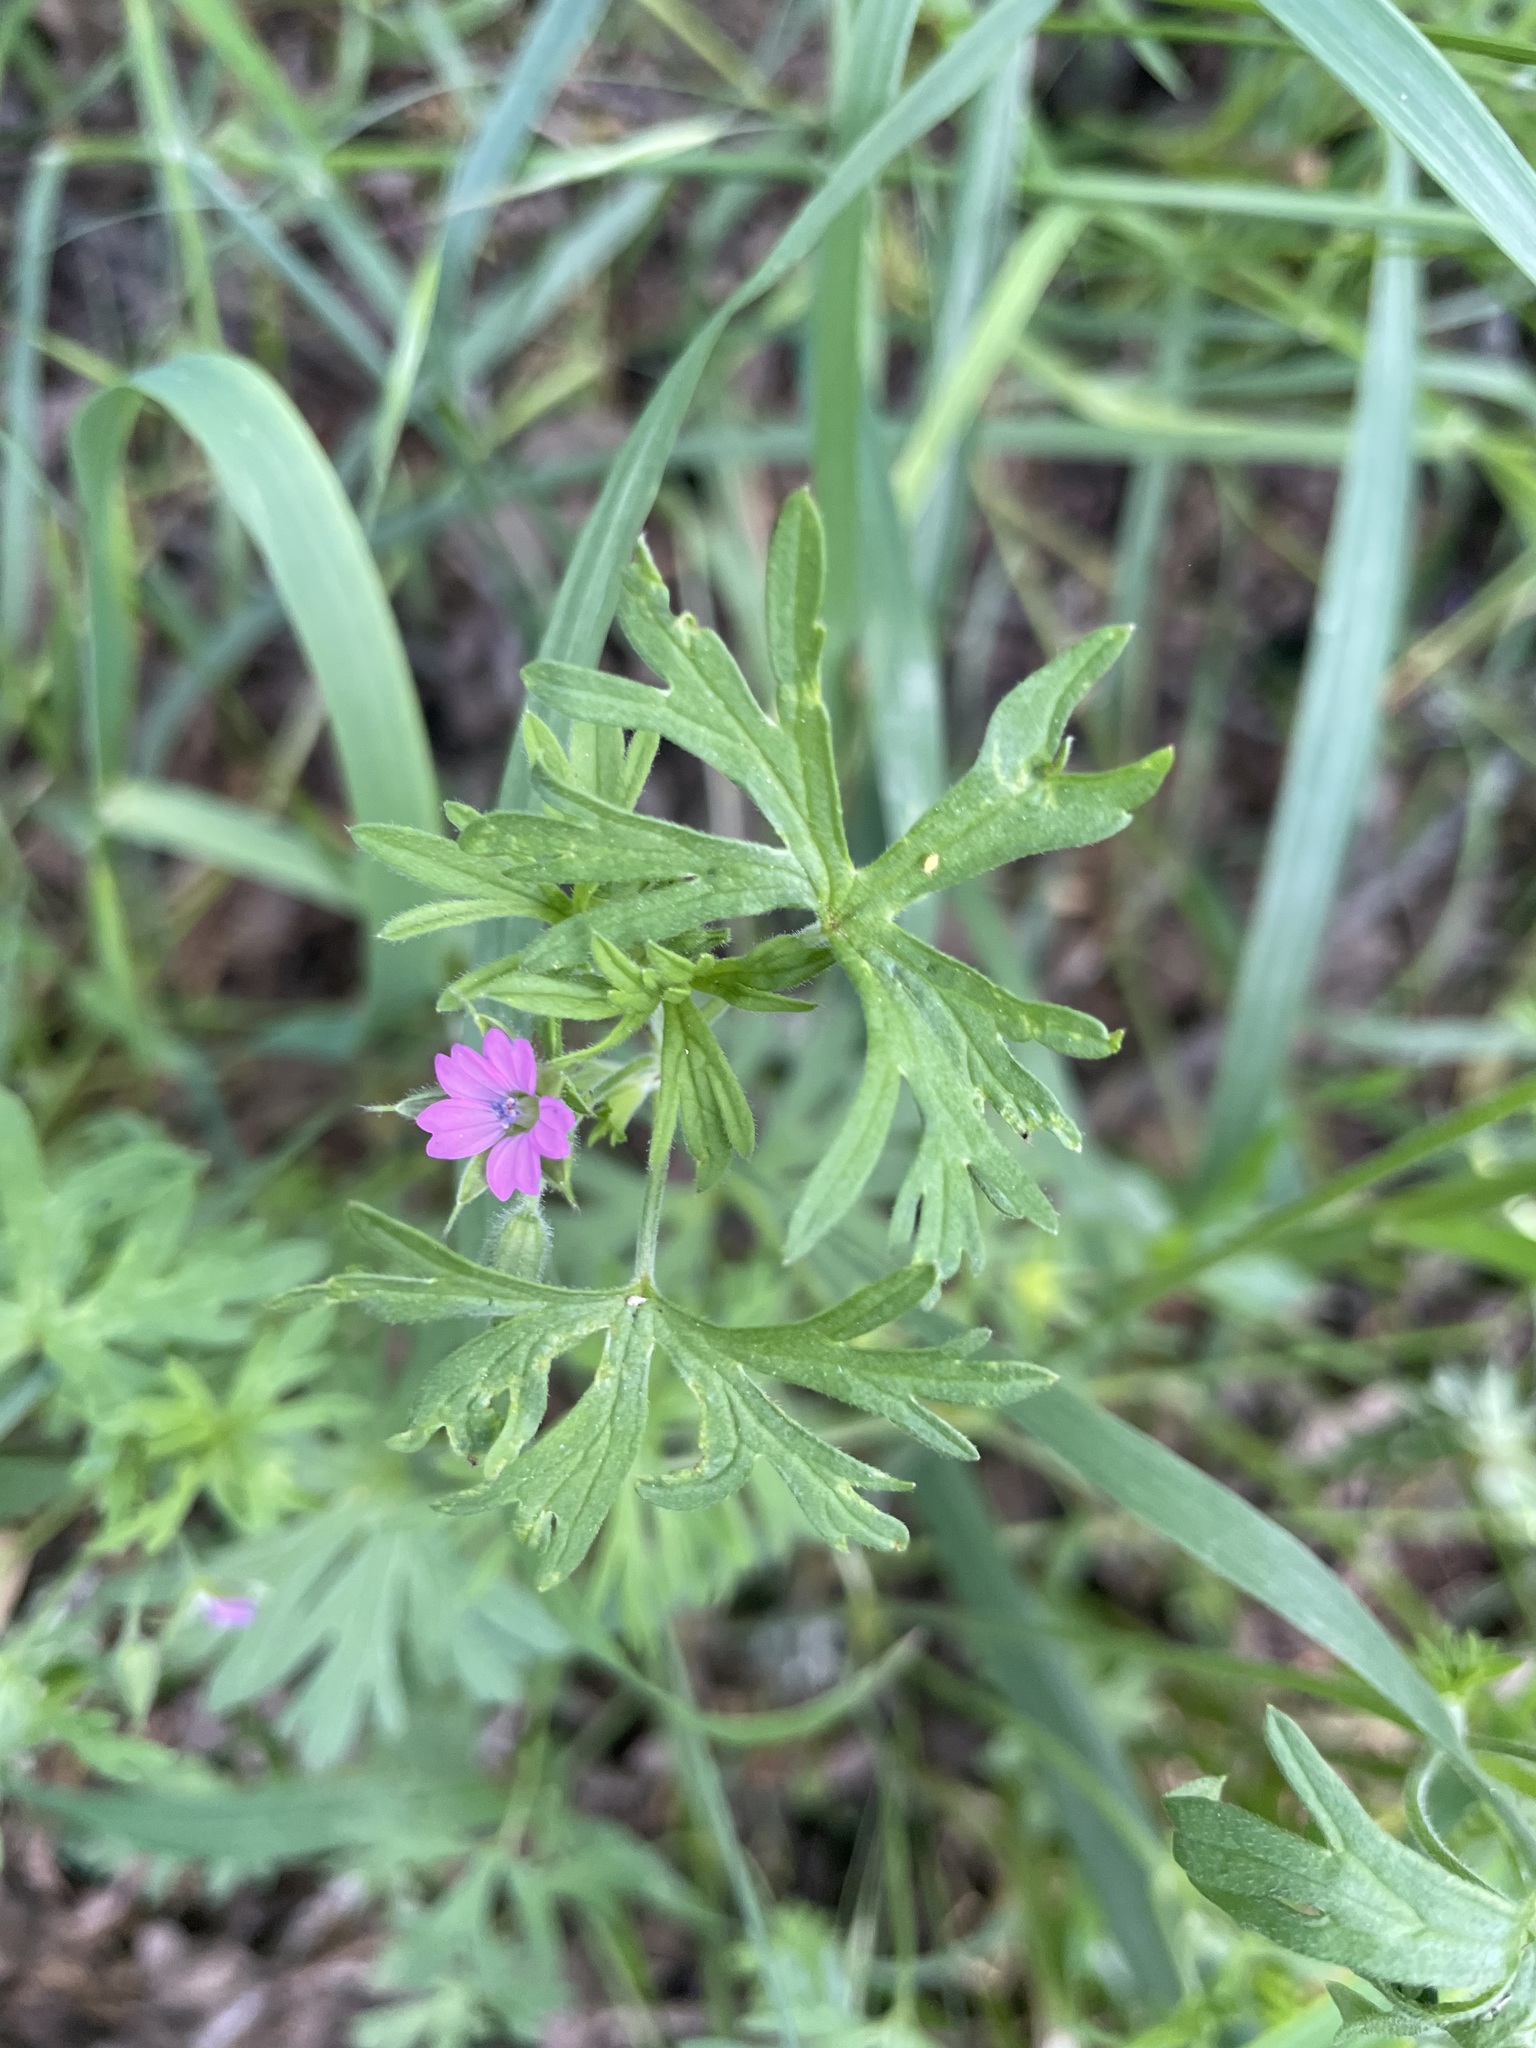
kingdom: Plantae
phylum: Tracheophyta
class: Magnoliopsida
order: Geraniales
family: Geraniaceae
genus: Geranium
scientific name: Geranium dissectum
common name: Cut-leaved crane's-bill
